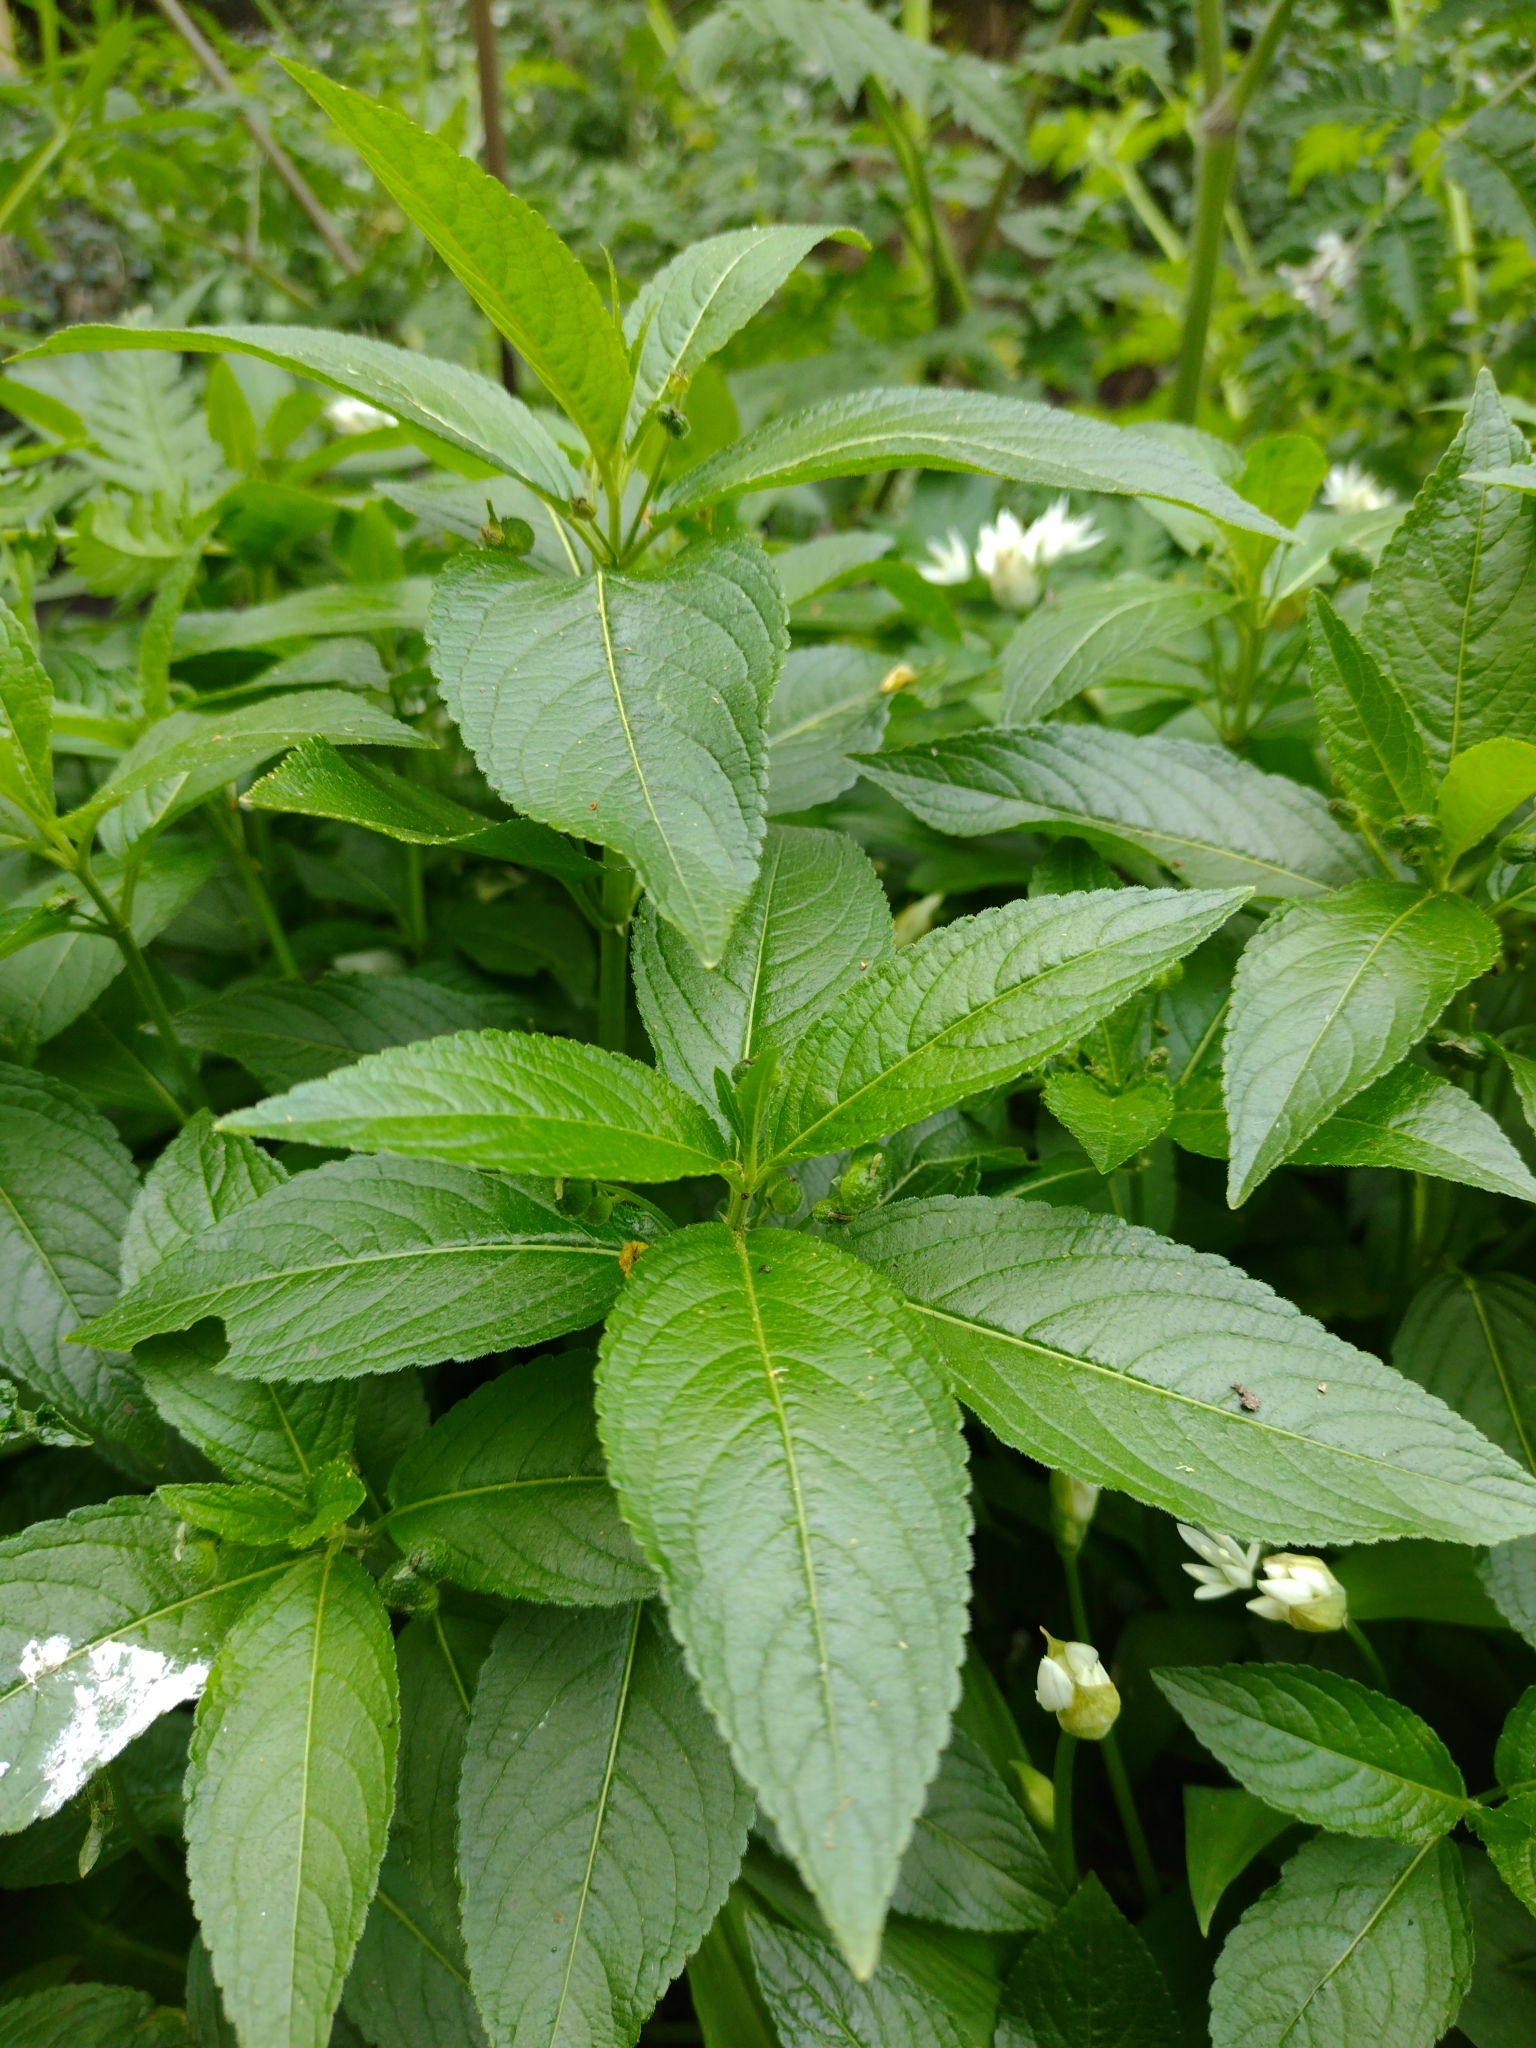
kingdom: Plantae
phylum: Tracheophyta
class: Magnoliopsida
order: Malpighiales
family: Euphorbiaceae
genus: Mercurialis
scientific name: Mercurialis perennis
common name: Dog mercury
